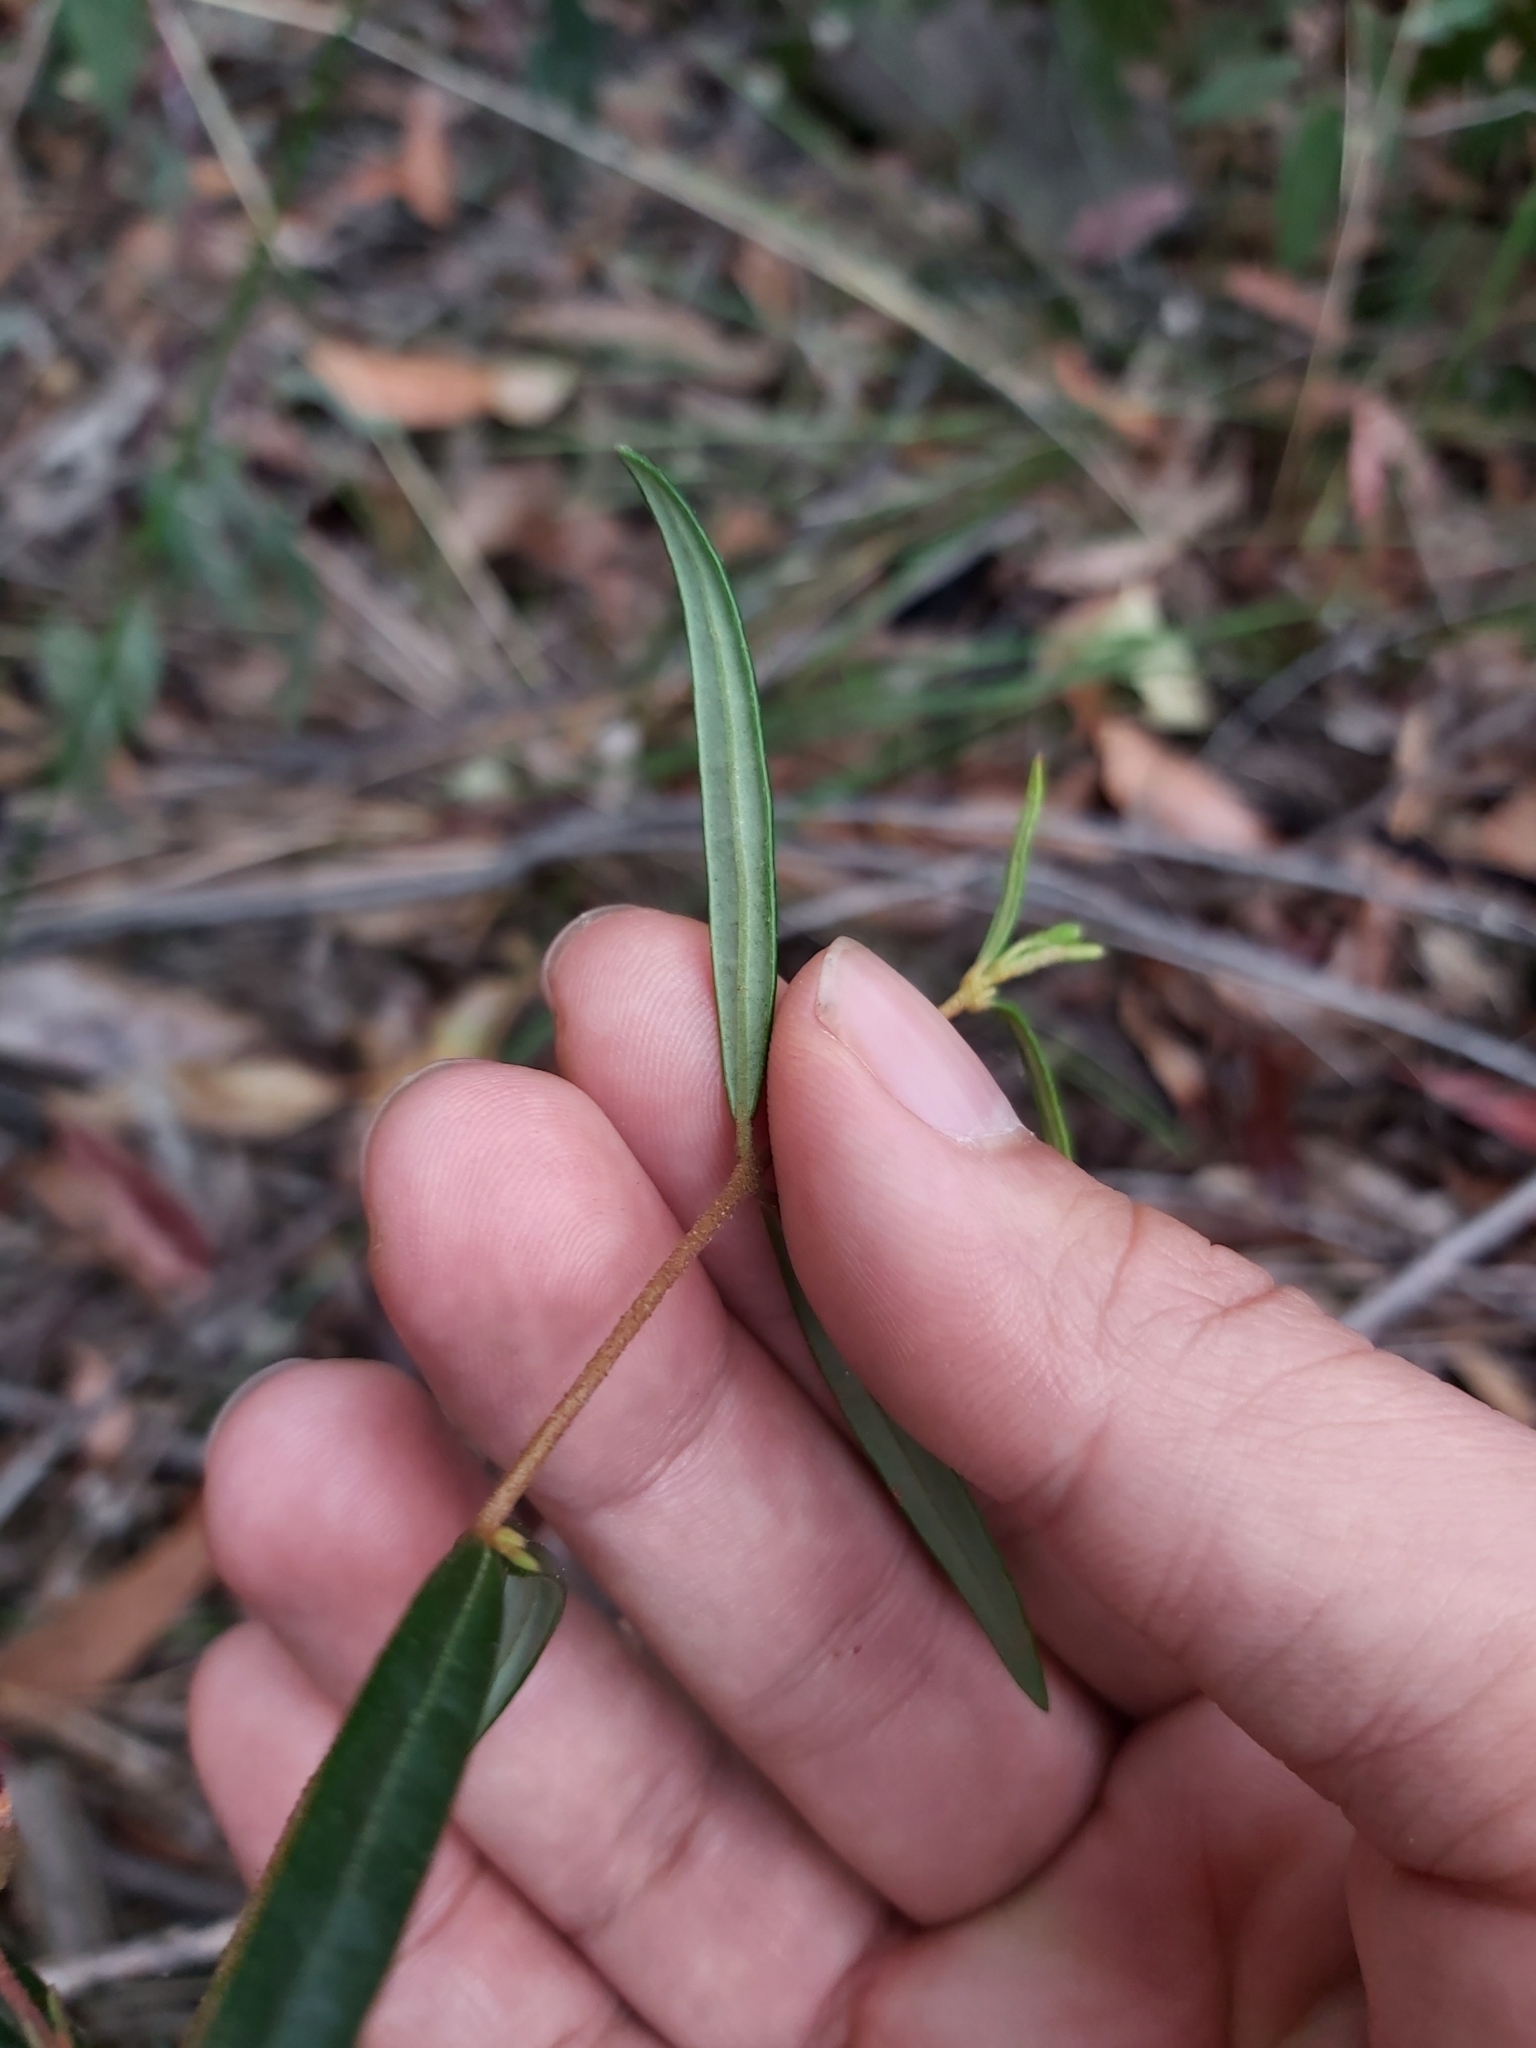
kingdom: Plantae
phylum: Tracheophyta
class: Magnoliopsida
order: Sapindales
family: Rutaceae
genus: Boronia
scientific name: Boronia ledifolia
